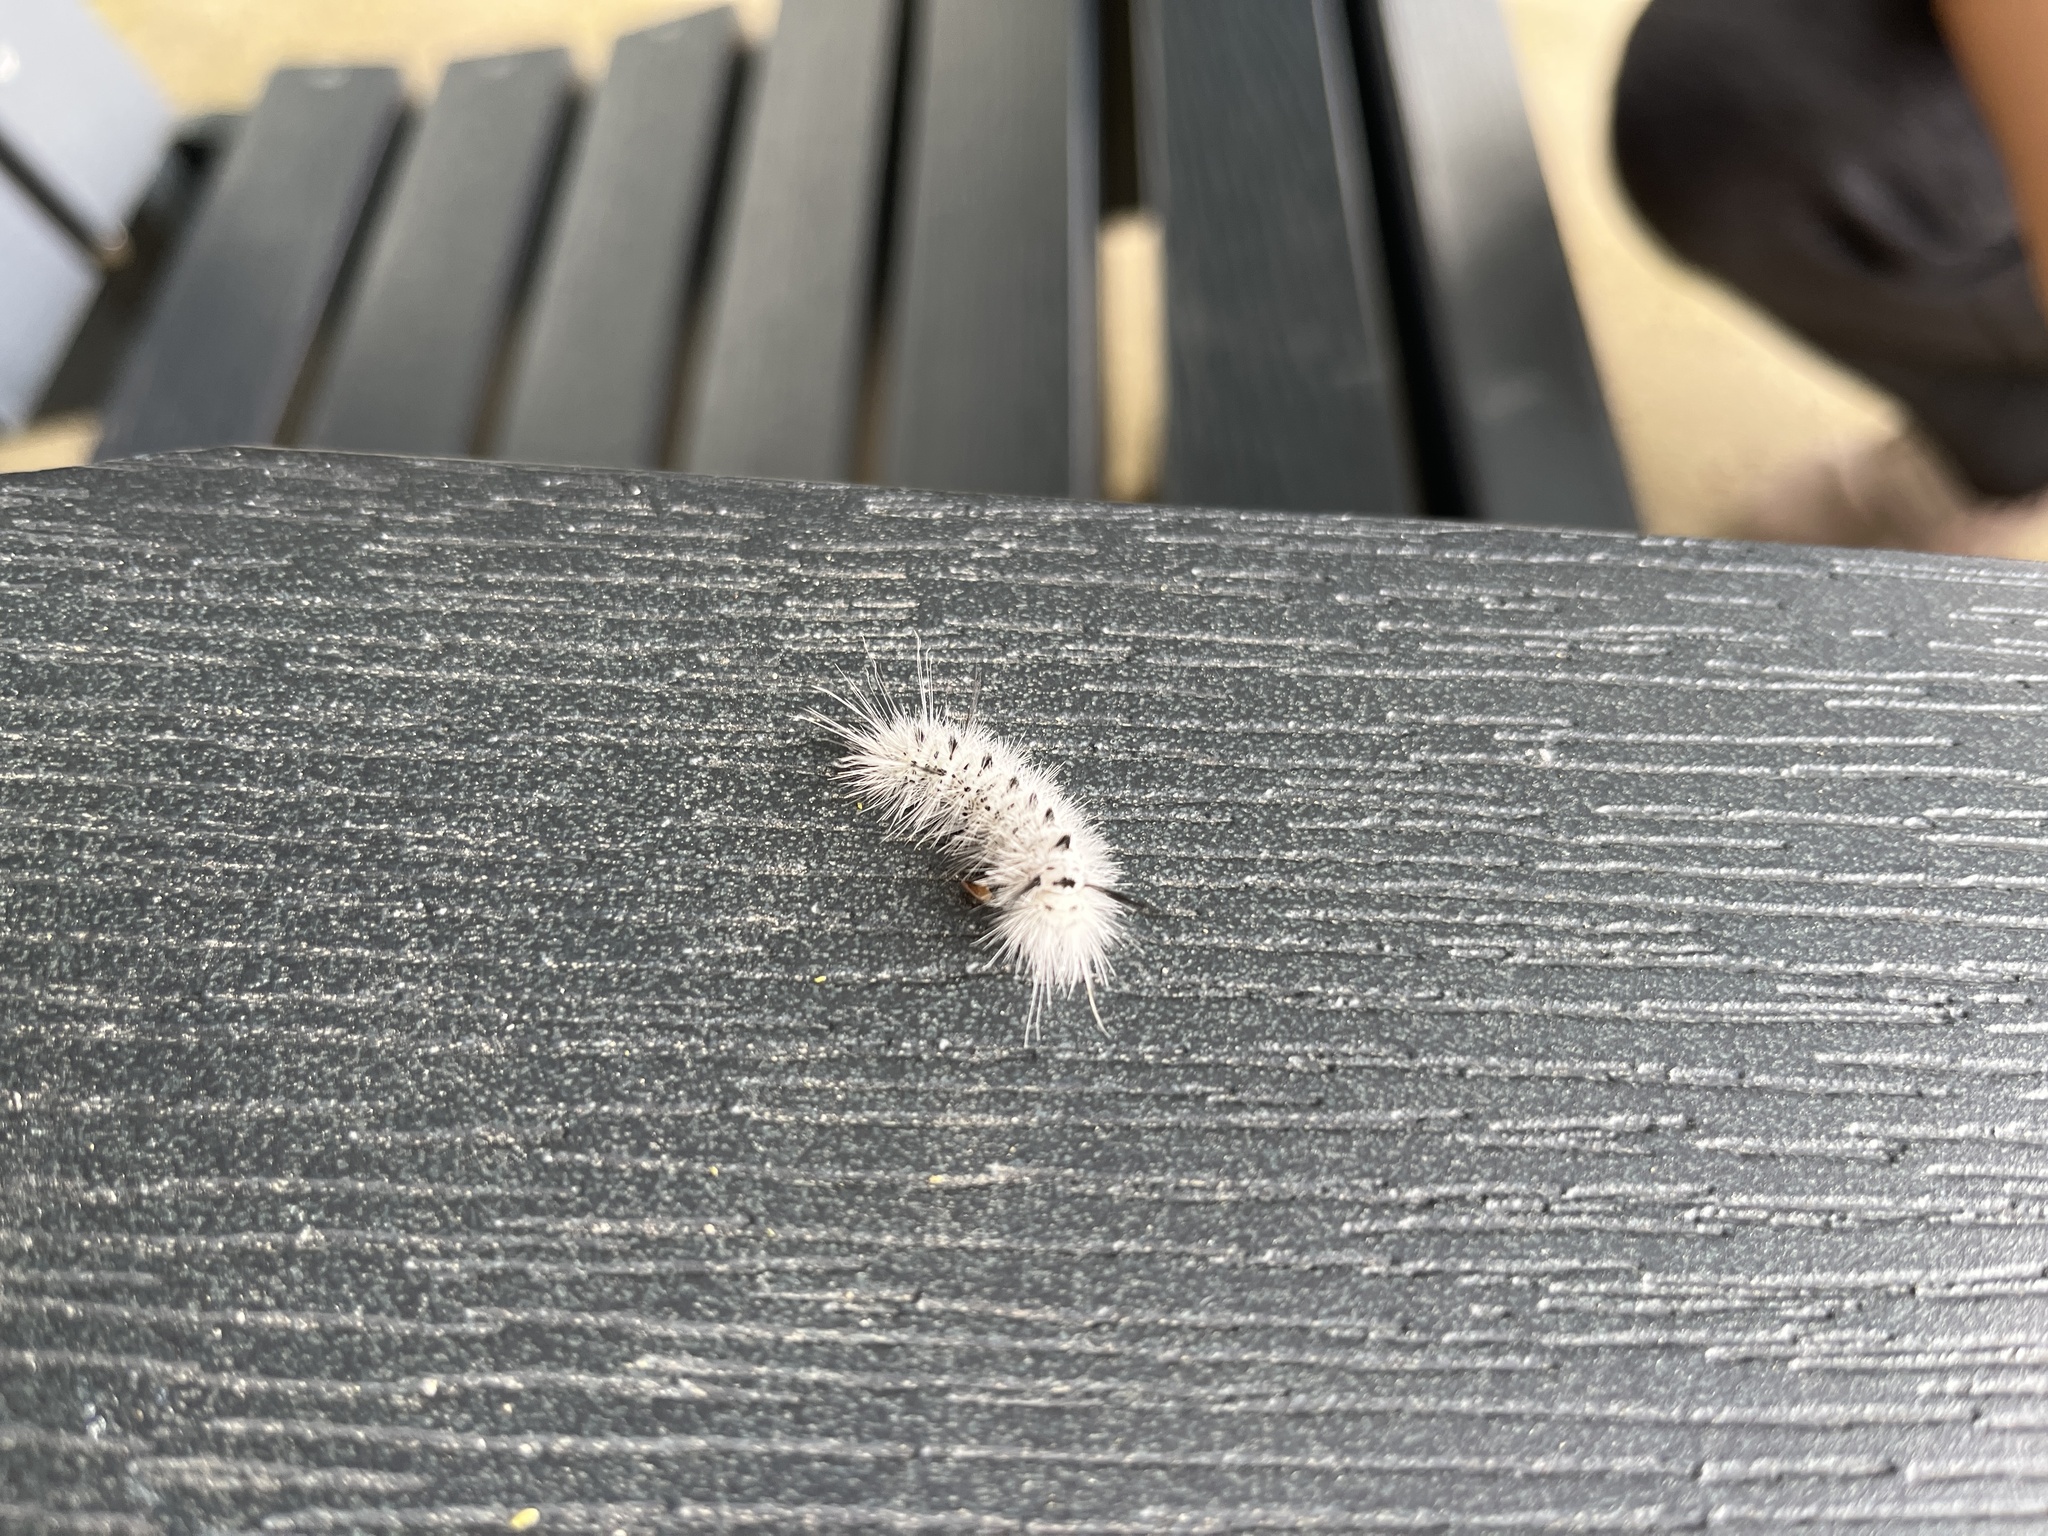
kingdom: Animalia
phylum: Arthropoda
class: Insecta
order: Lepidoptera
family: Erebidae
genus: Lophocampa
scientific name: Lophocampa caryae
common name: Hickory tussock moth
